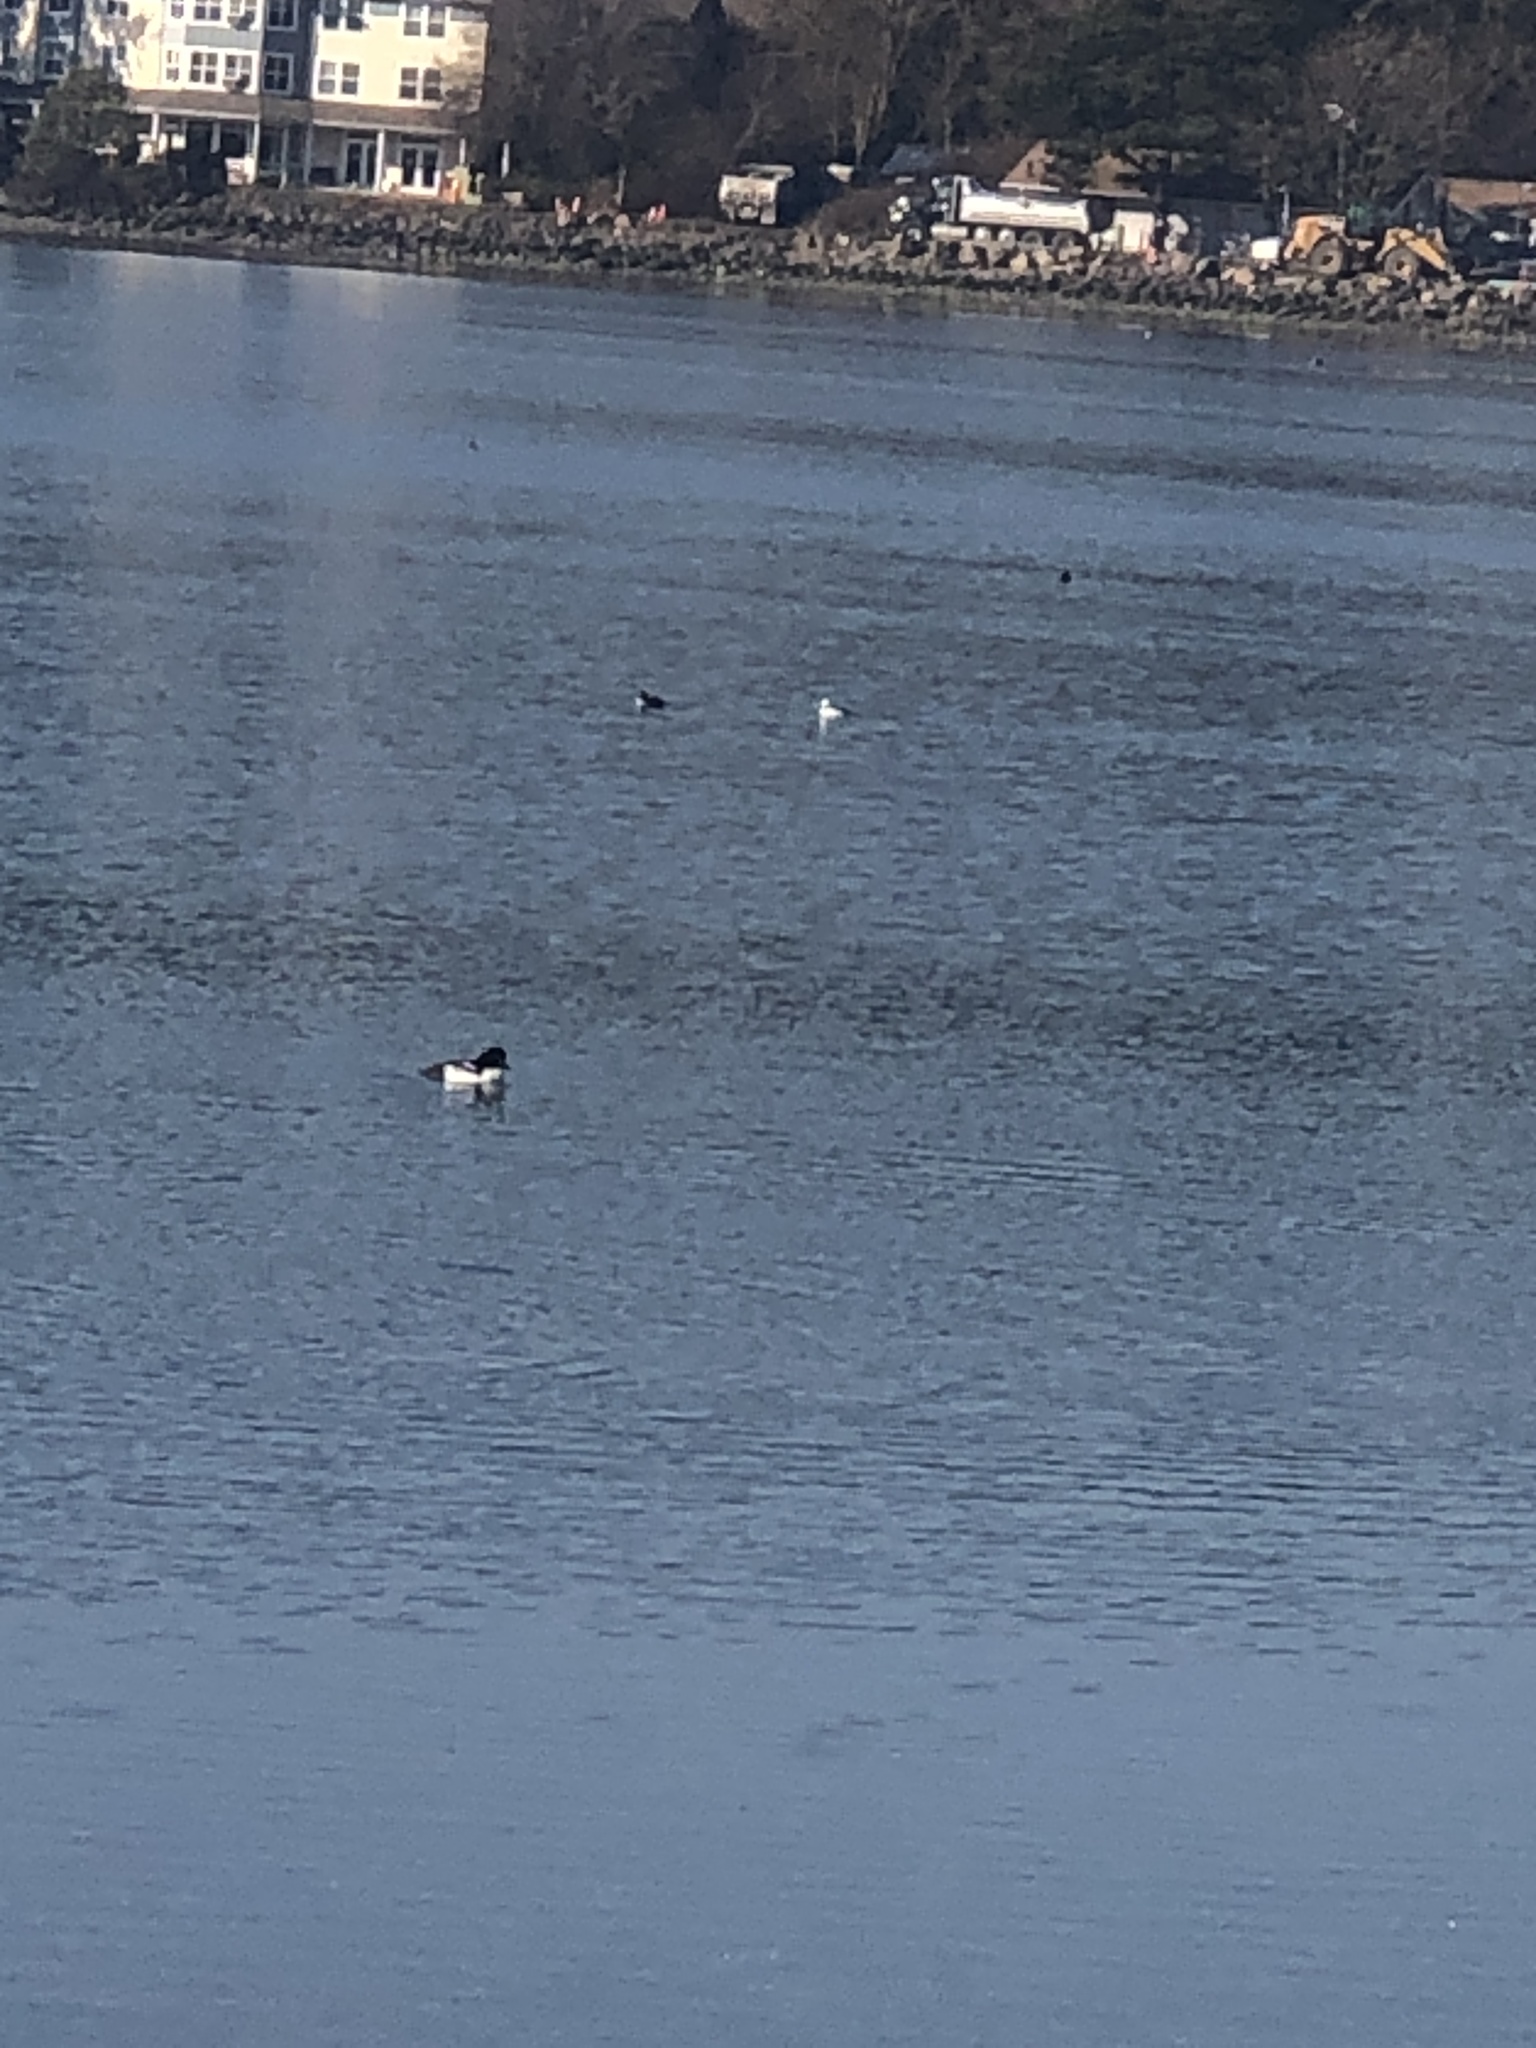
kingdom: Animalia
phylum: Chordata
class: Aves
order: Anseriformes
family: Anatidae
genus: Bucephala
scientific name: Bucephala islandica
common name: Barrow's goldeneye
